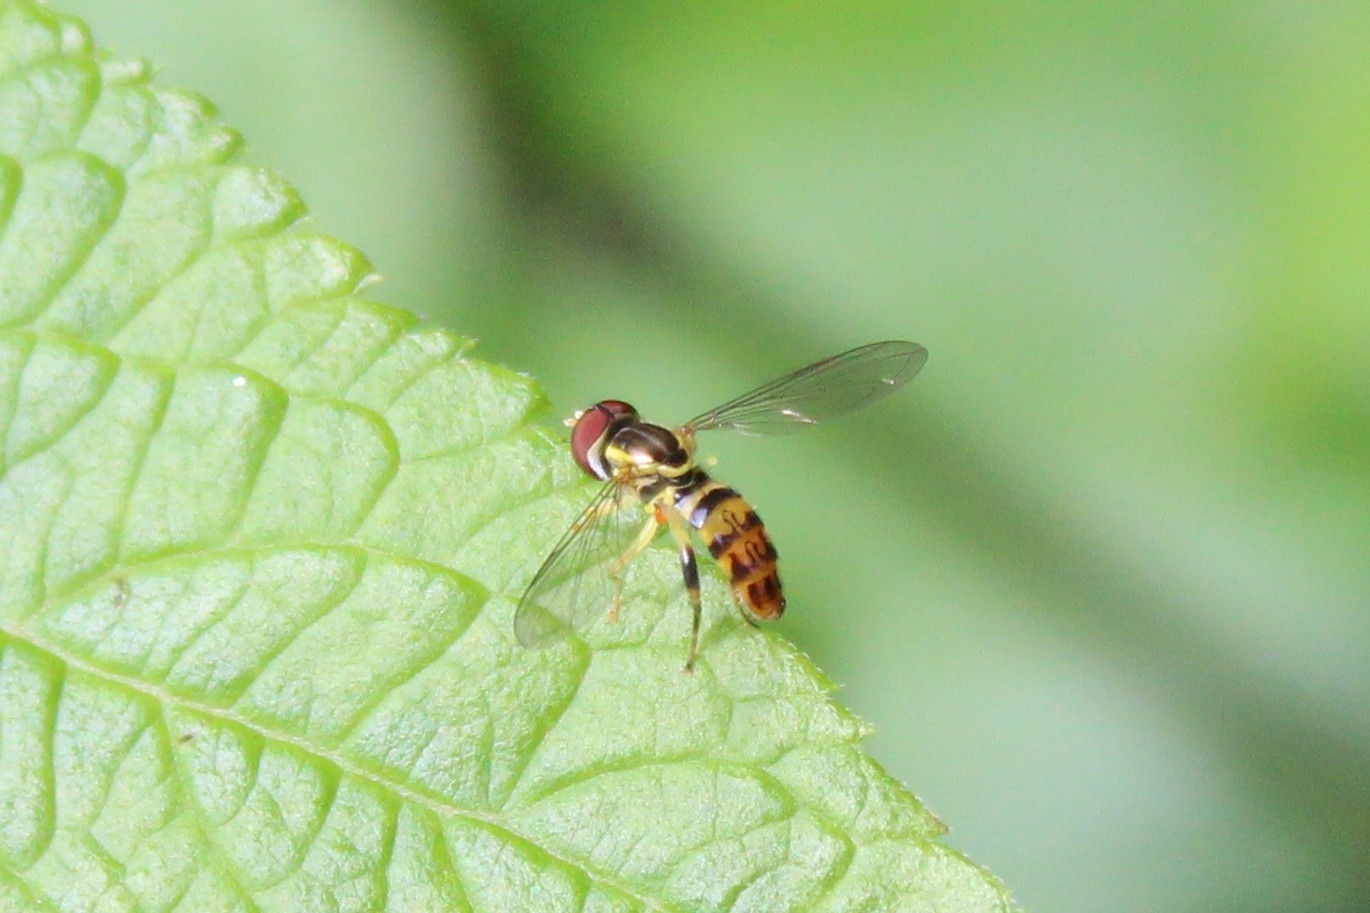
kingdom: Animalia
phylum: Arthropoda
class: Insecta
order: Diptera
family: Syrphidae
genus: Toxomerus
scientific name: Toxomerus geminatus
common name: Eastern calligrapher
